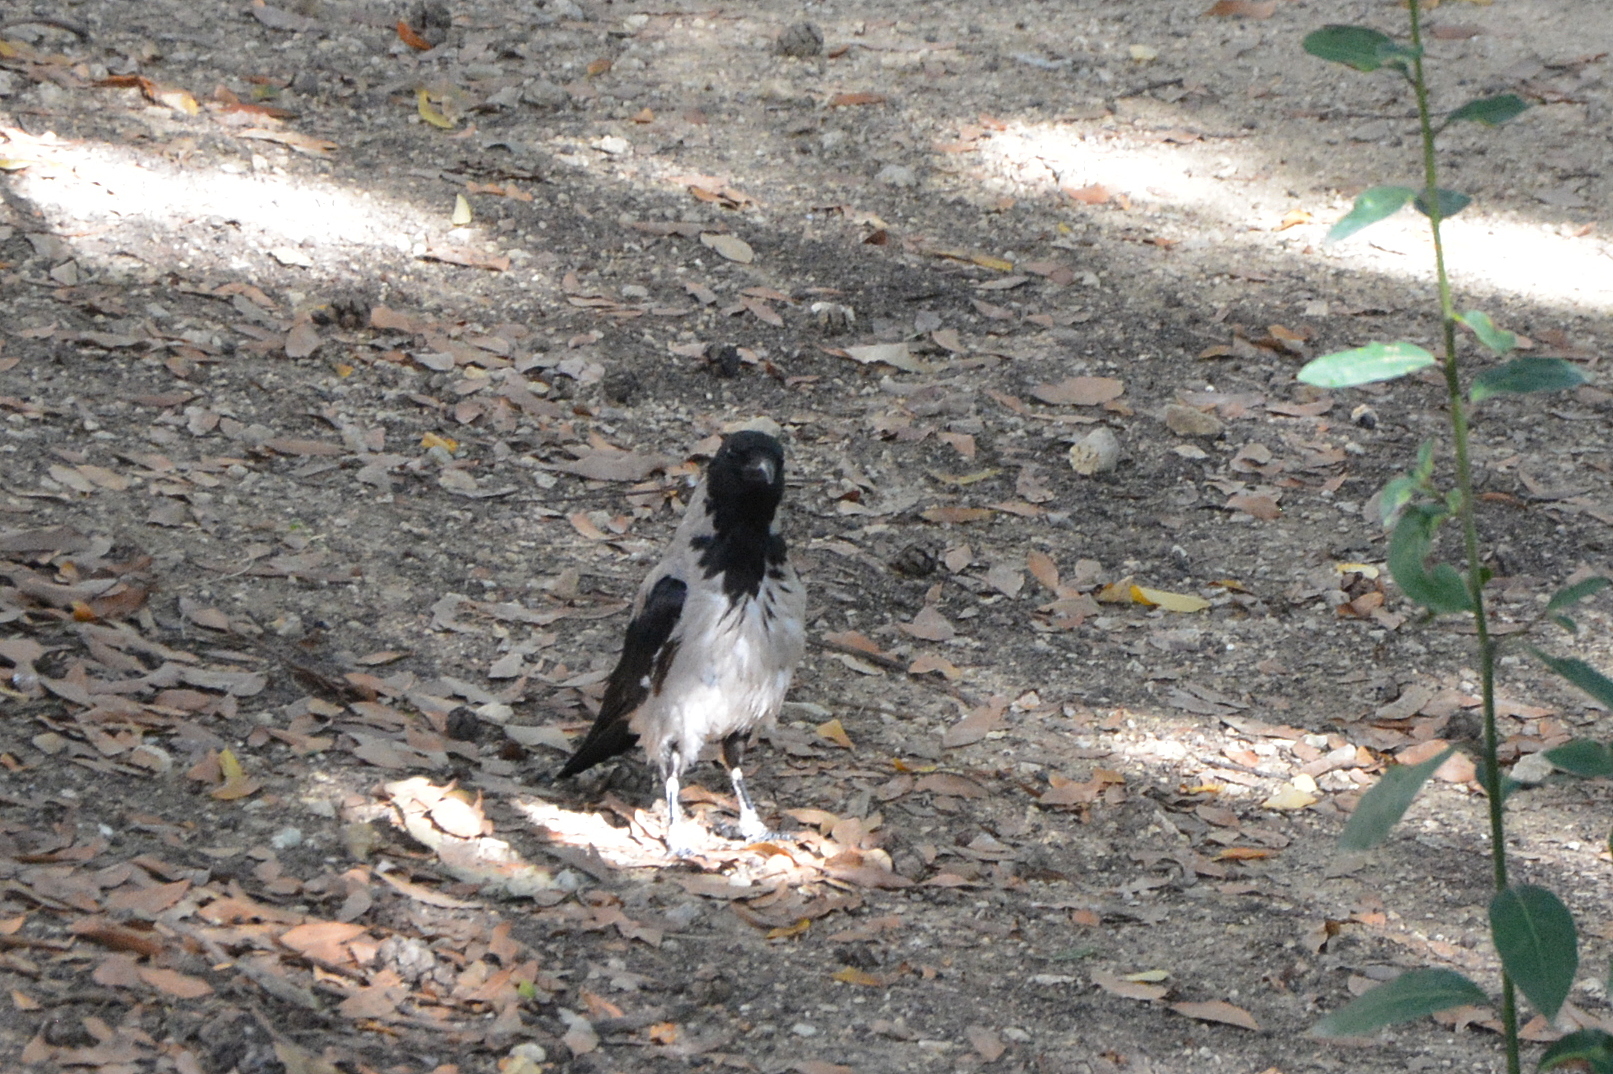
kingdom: Animalia
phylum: Chordata
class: Aves
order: Passeriformes
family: Corvidae
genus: Corvus
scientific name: Corvus cornix
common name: Hooded crow
